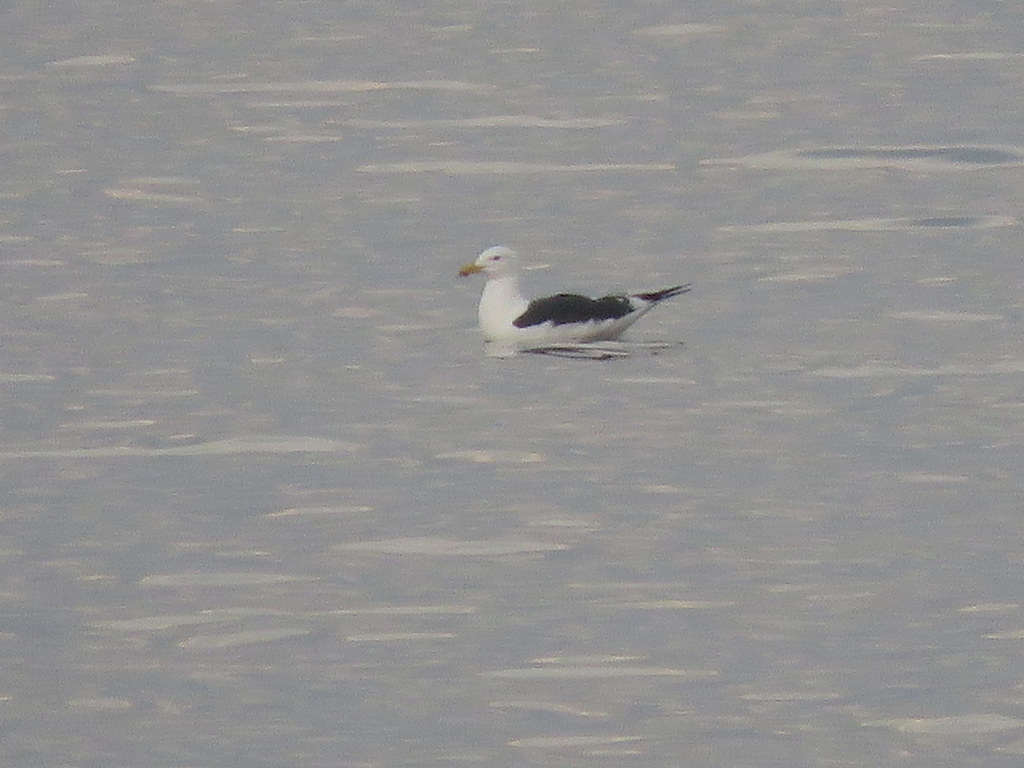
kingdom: Animalia
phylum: Chordata
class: Aves
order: Charadriiformes
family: Laridae
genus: Larus
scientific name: Larus dominicanus
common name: Kelp gull
